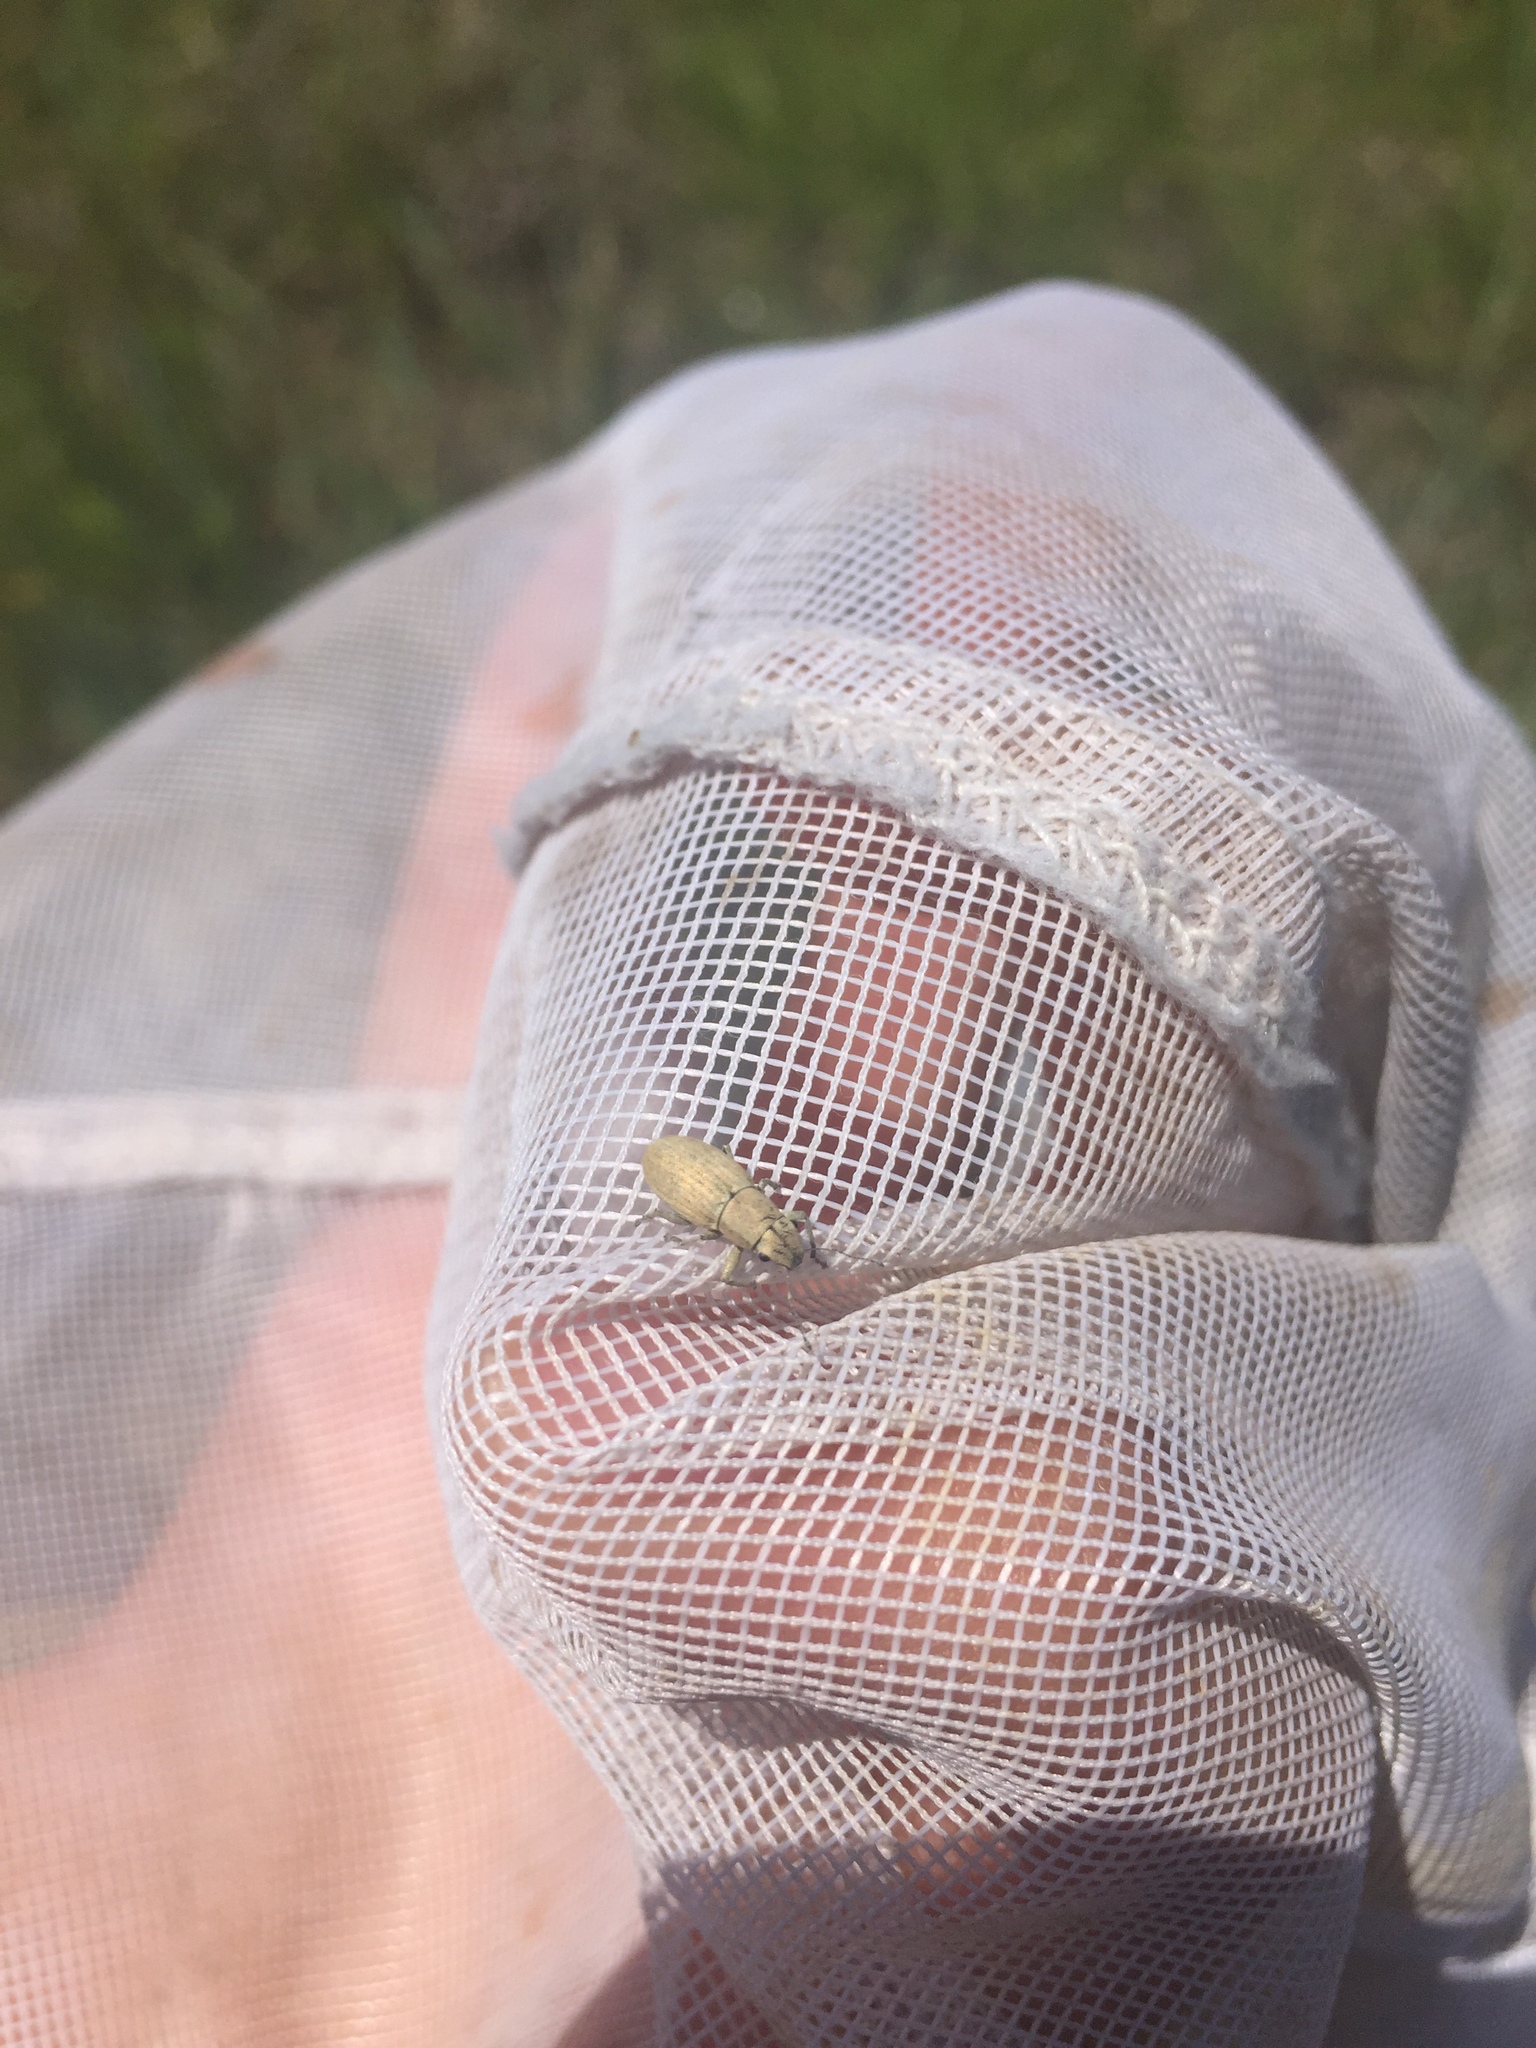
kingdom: Animalia
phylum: Arthropoda
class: Insecta
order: Coleoptera
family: Curculionidae
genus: Aramigus
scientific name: Aramigus tessellatus
